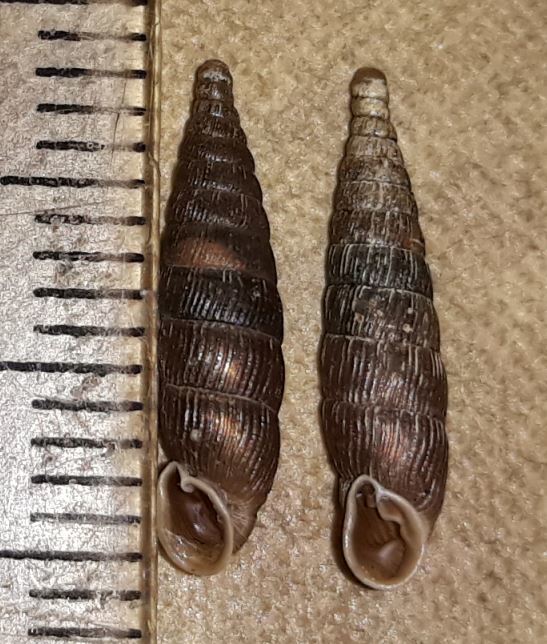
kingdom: Animalia
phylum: Mollusca
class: Gastropoda
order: Stylommatophora
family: Clausiliidae
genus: Clausilia
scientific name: Clausilia pumila
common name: Clublike door snail
